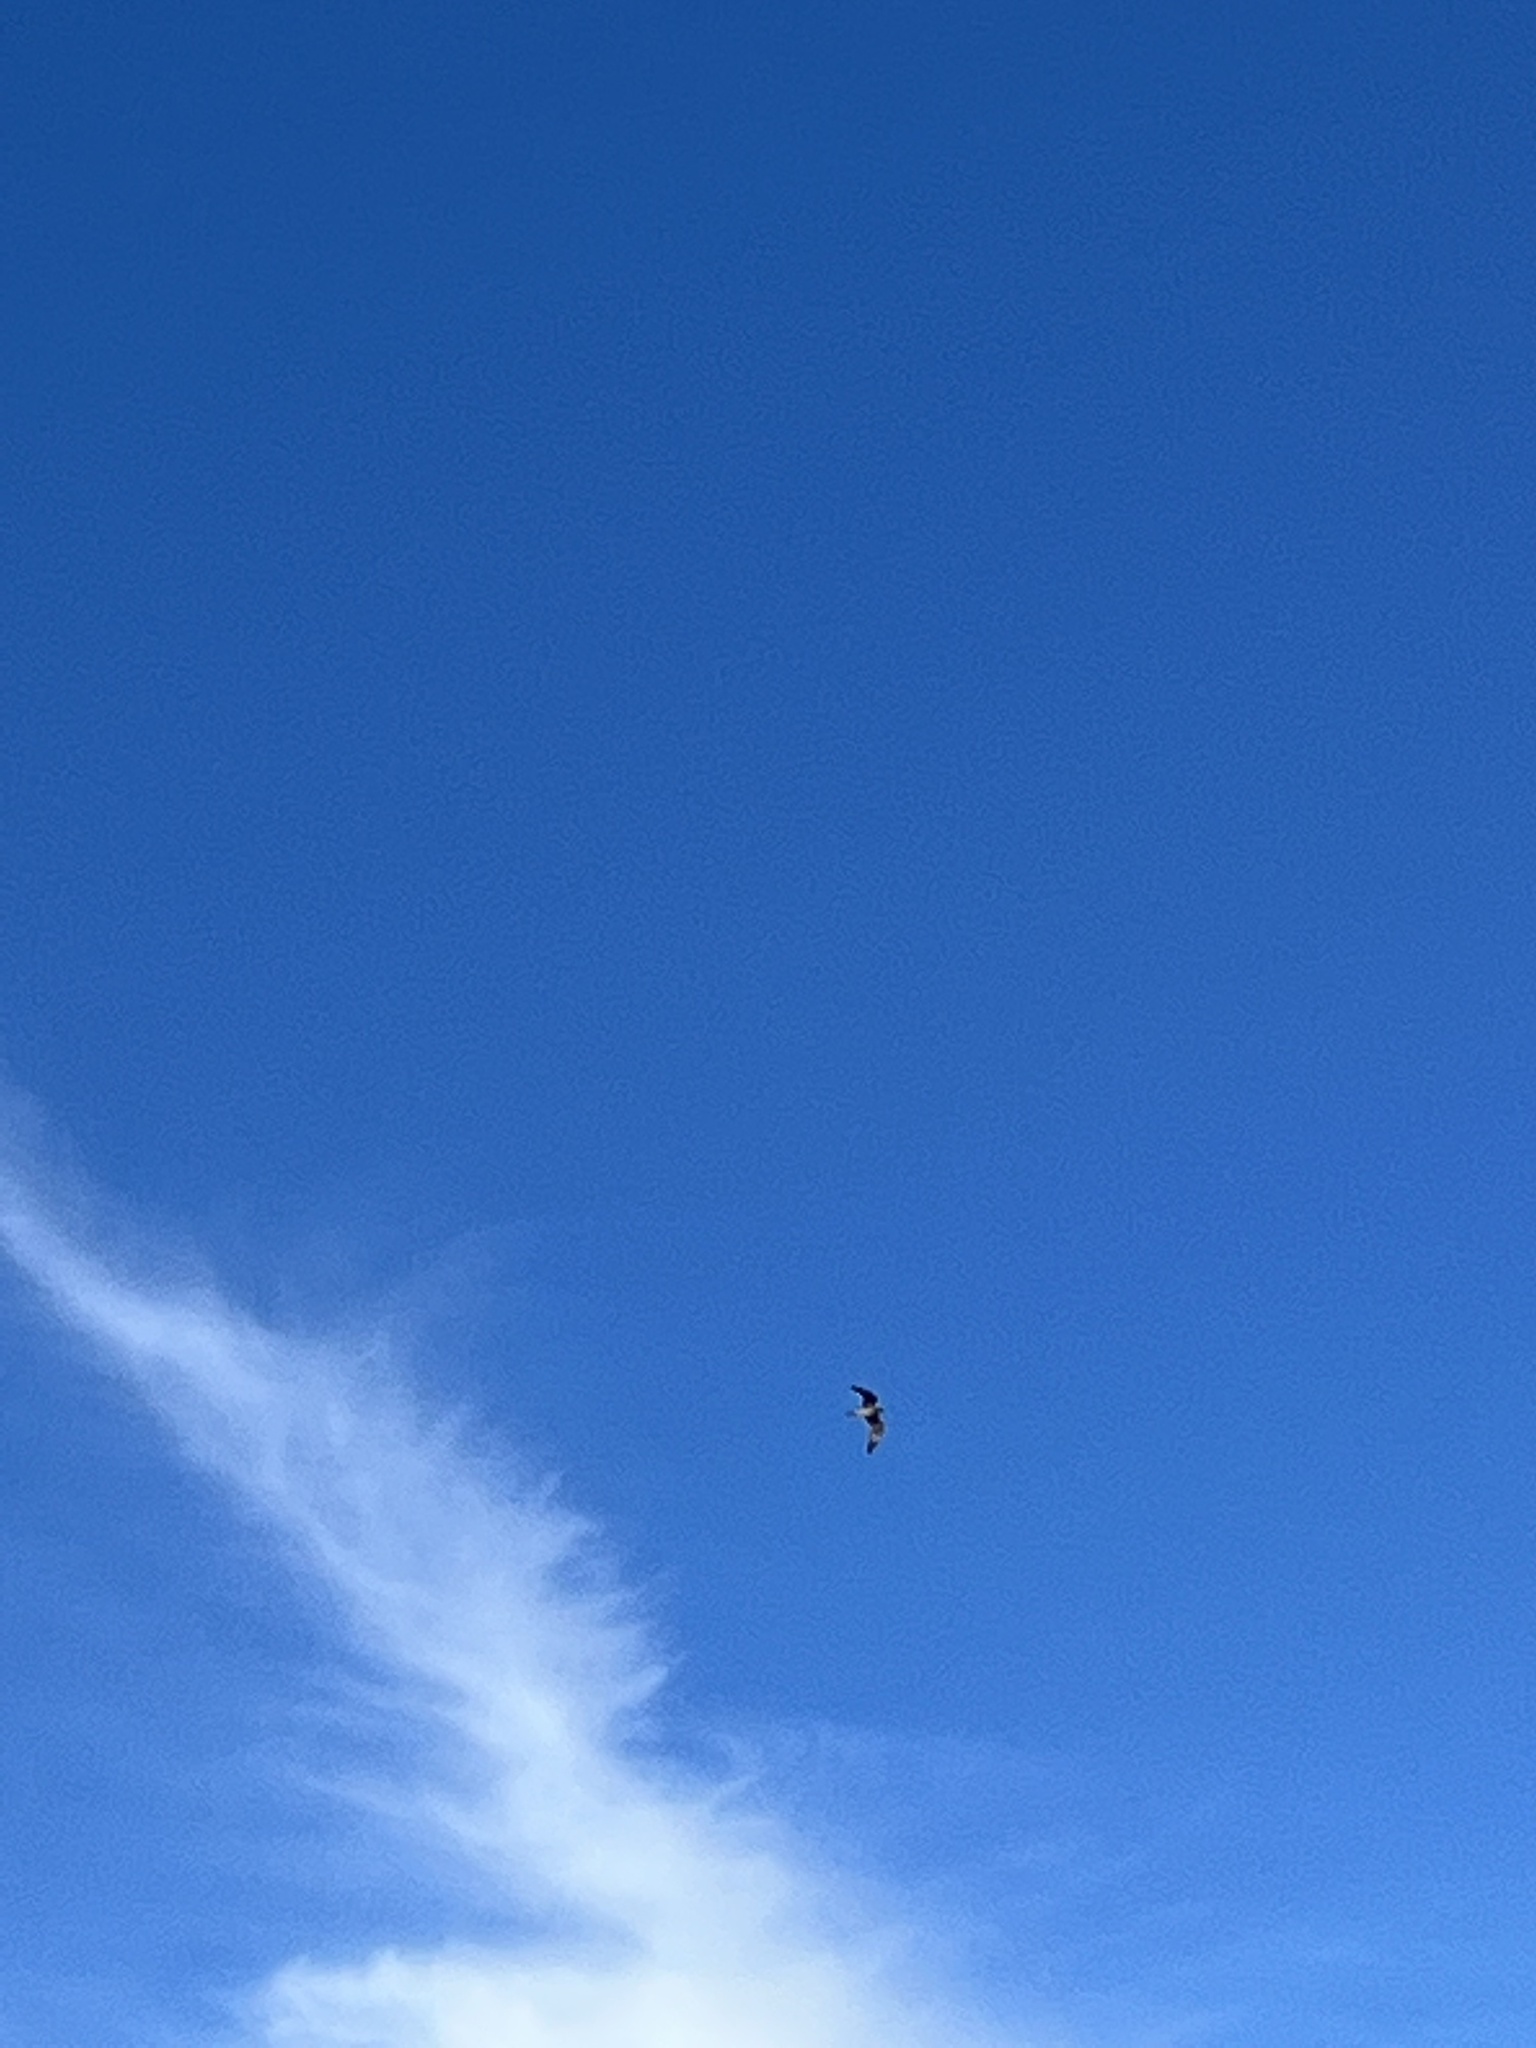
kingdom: Animalia
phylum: Chordata
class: Aves
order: Caprimulgiformes
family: Caprimulgidae
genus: Chordeiles
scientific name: Chordeiles minor
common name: Common nighthawk
